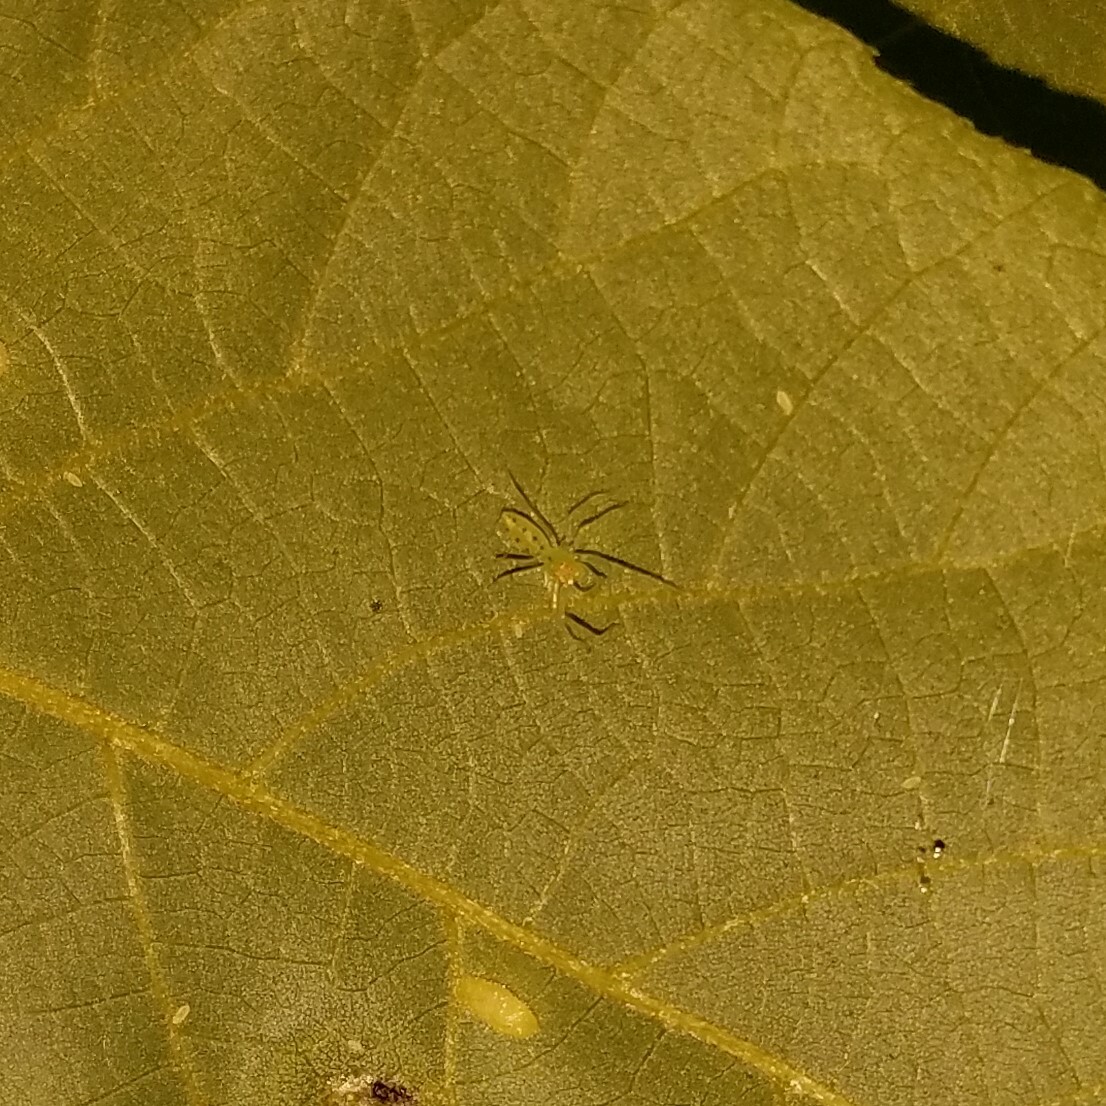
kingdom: Animalia
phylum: Arthropoda
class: Arachnida
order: Araneae
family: Salticidae
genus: Lyssomanes
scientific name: Lyssomanes viridis
